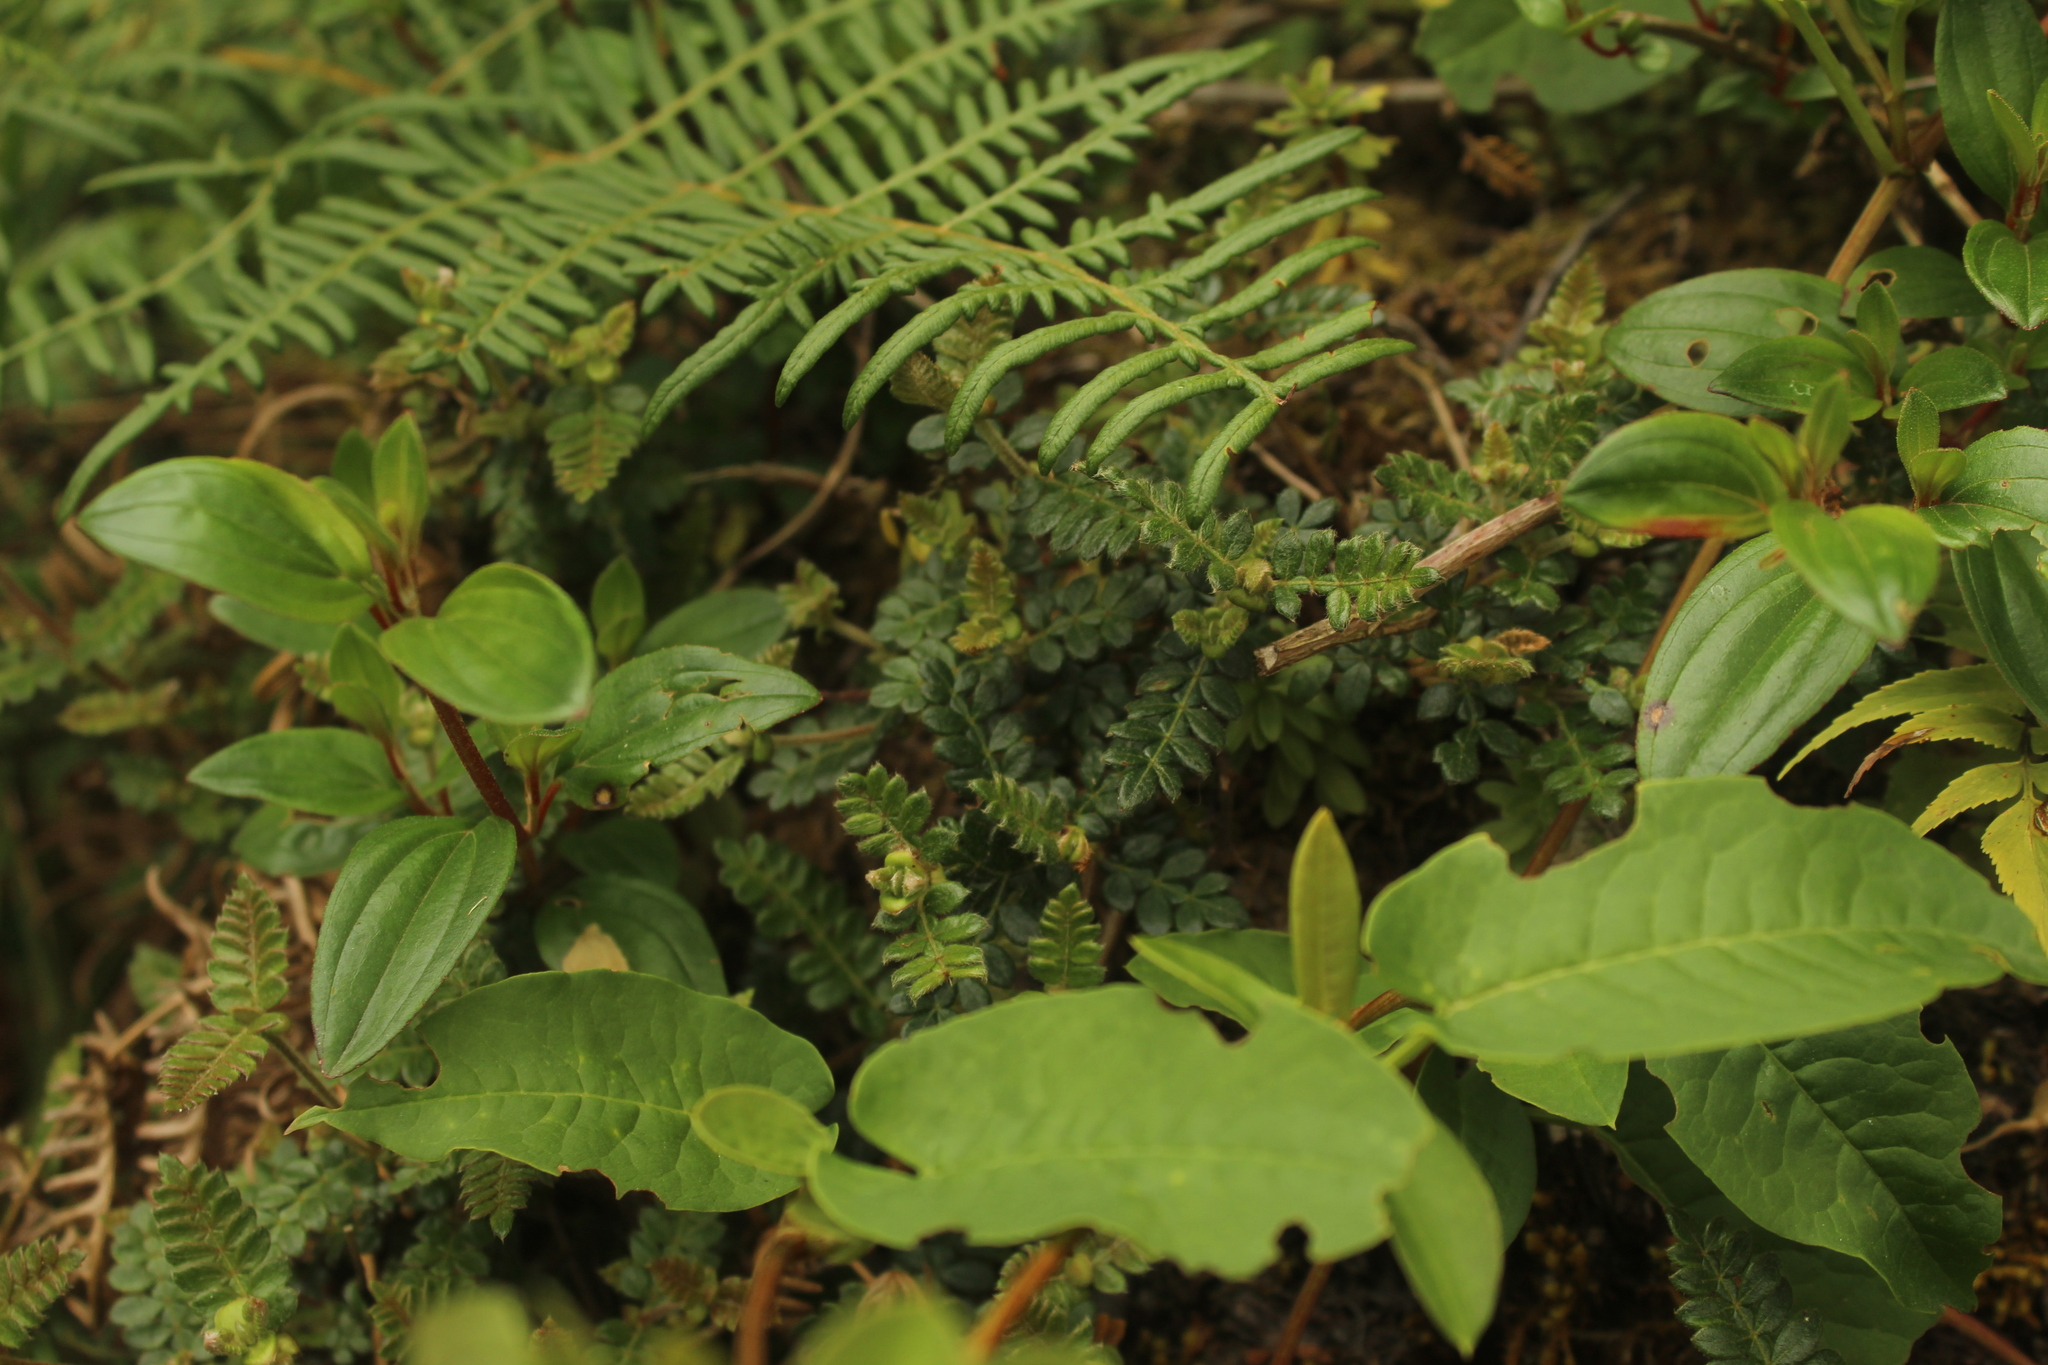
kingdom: Plantae
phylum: Tracheophyta
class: Magnoliopsida
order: Oxalidales
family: Cunoniaceae
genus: Weinmannia
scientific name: Weinmannia tomentosa
